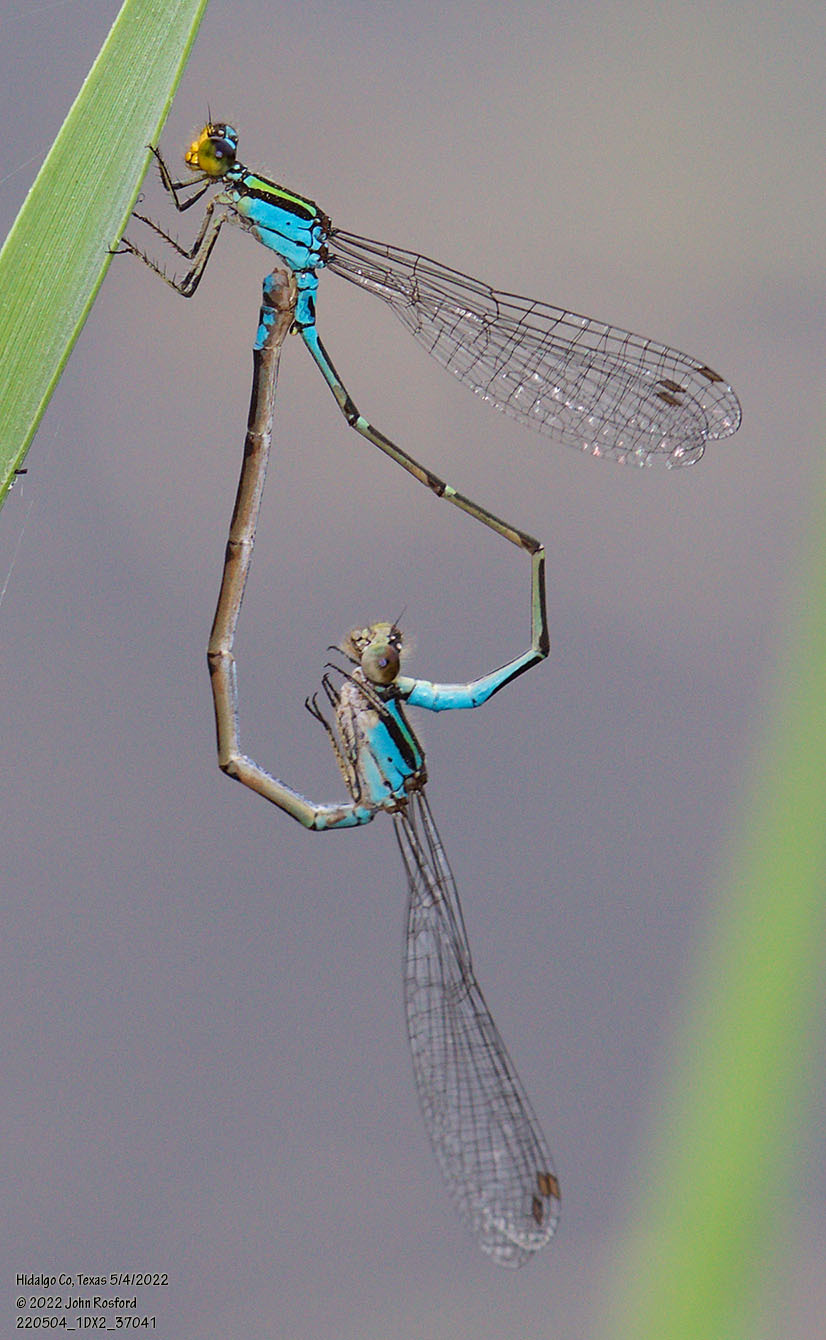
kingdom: Animalia
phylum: Arthropoda
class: Insecta
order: Odonata
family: Coenagrionidae
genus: Neoerythromma
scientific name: Neoerythromma cultellatum
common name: Caribbean yellowface
